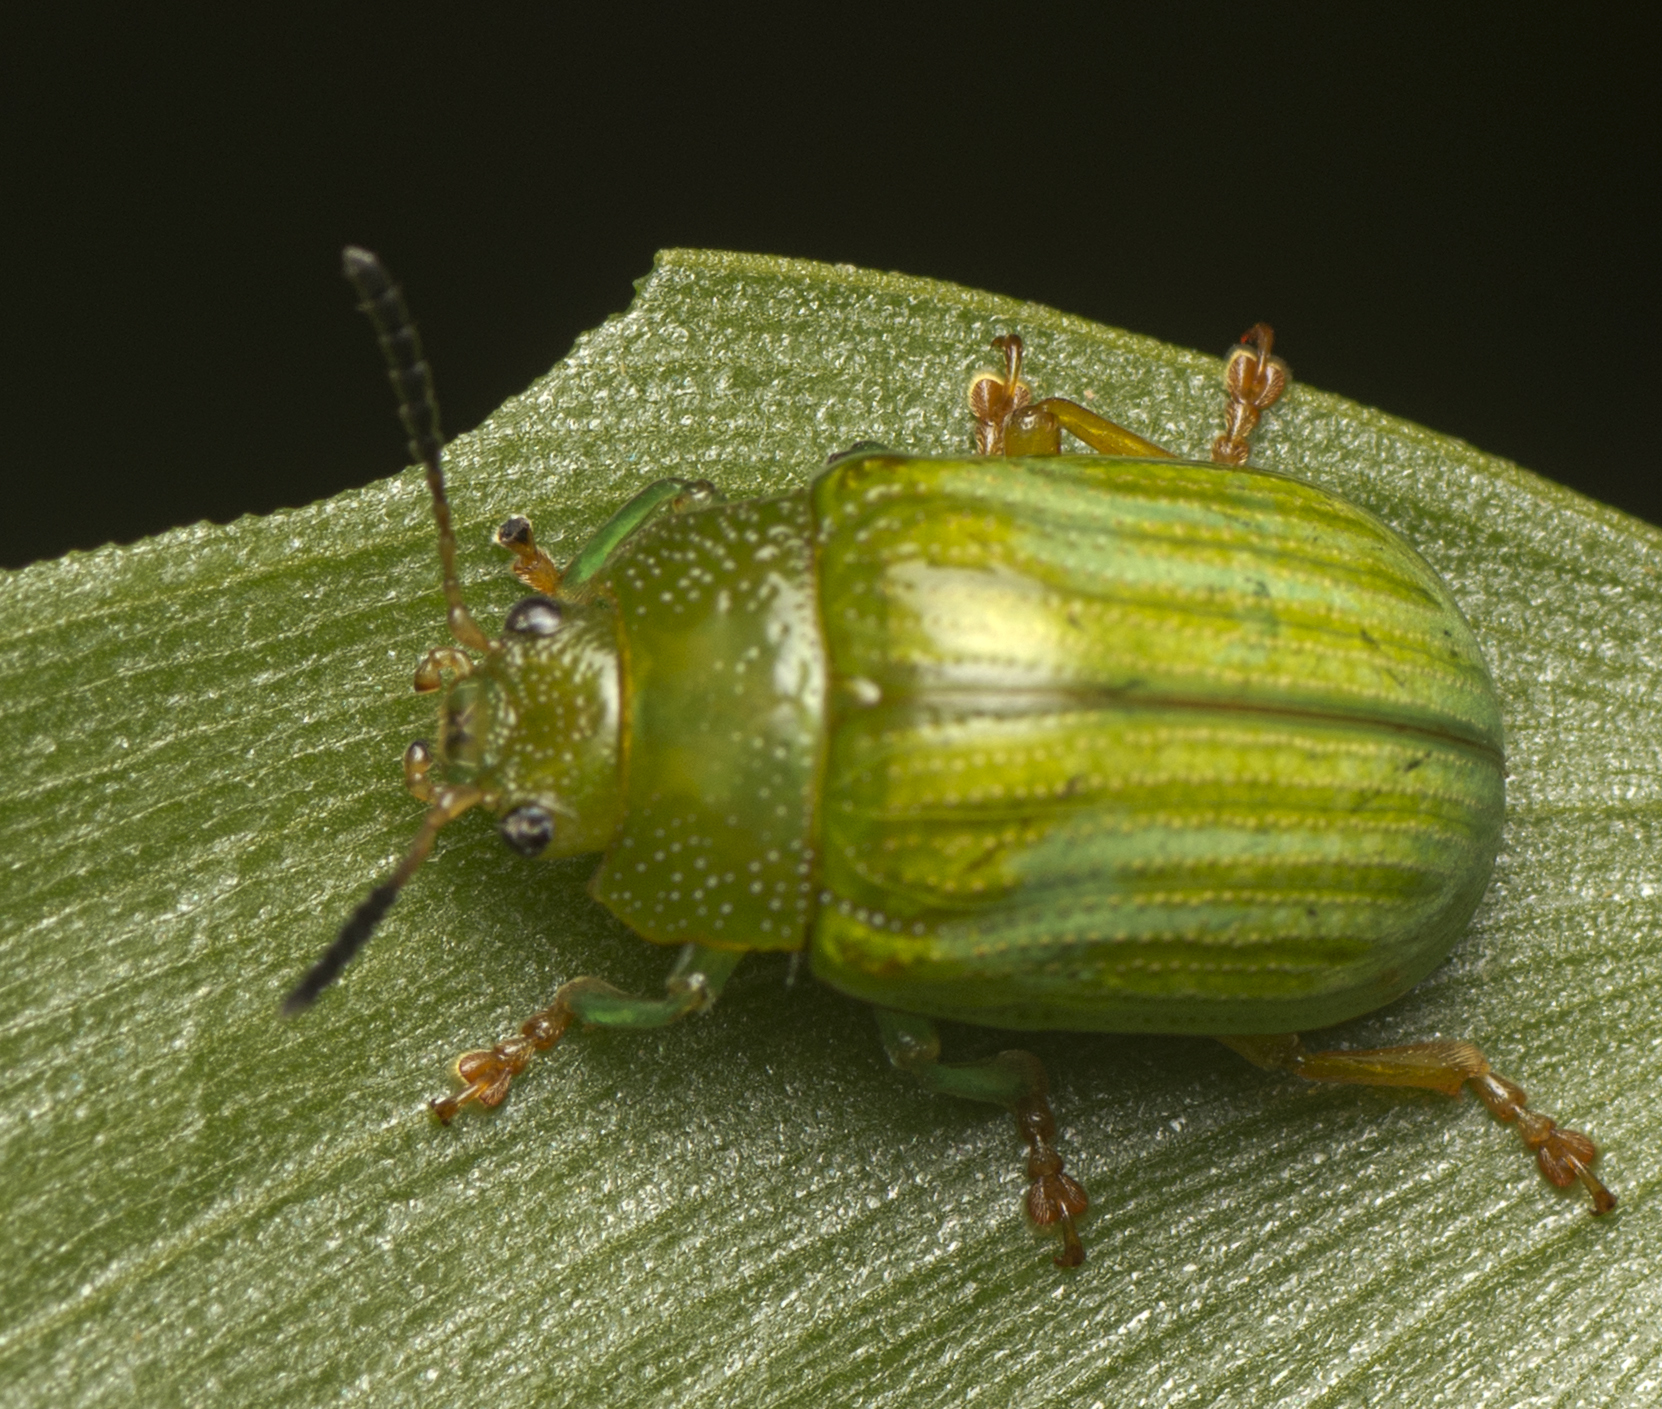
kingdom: Animalia
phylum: Arthropoda
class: Insecta
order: Coleoptera
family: Chrysomelidae
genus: Calomela
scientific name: Calomela
